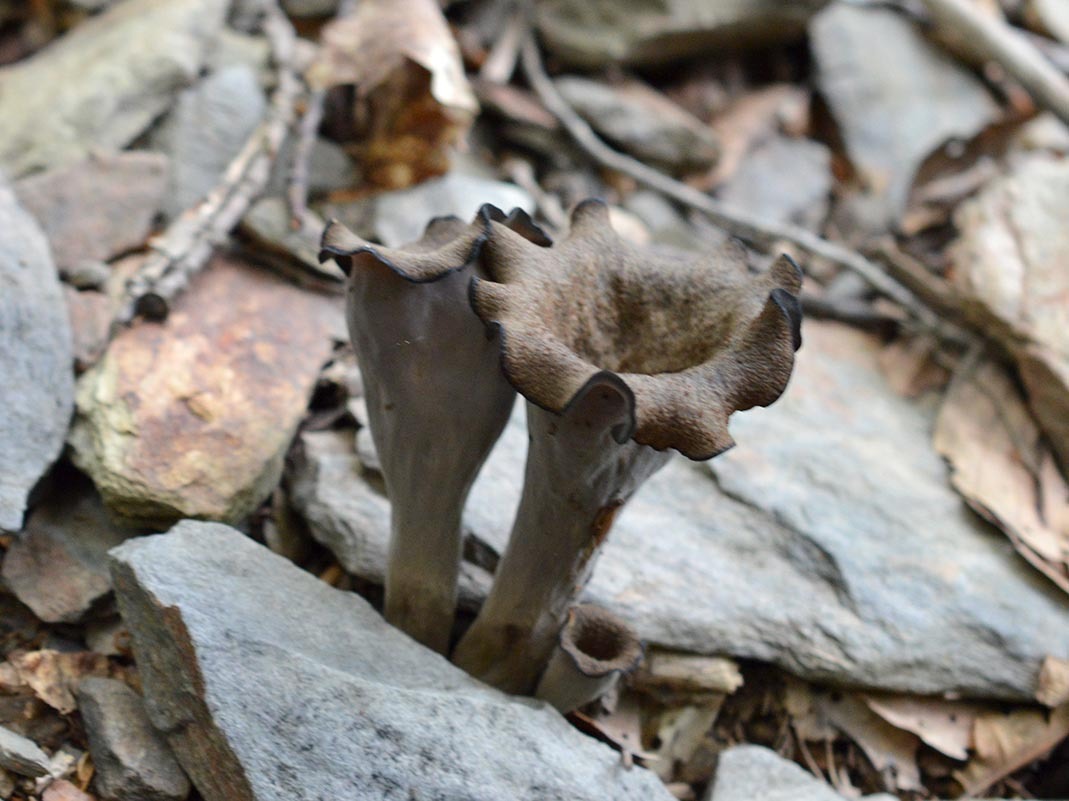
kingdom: Fungi
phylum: Basidiomycota
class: Agaricomycetes
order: Cantharellales
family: Hydnaceae
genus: Craterellus
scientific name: Craterellus cornucopioides
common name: Horn of plenty
